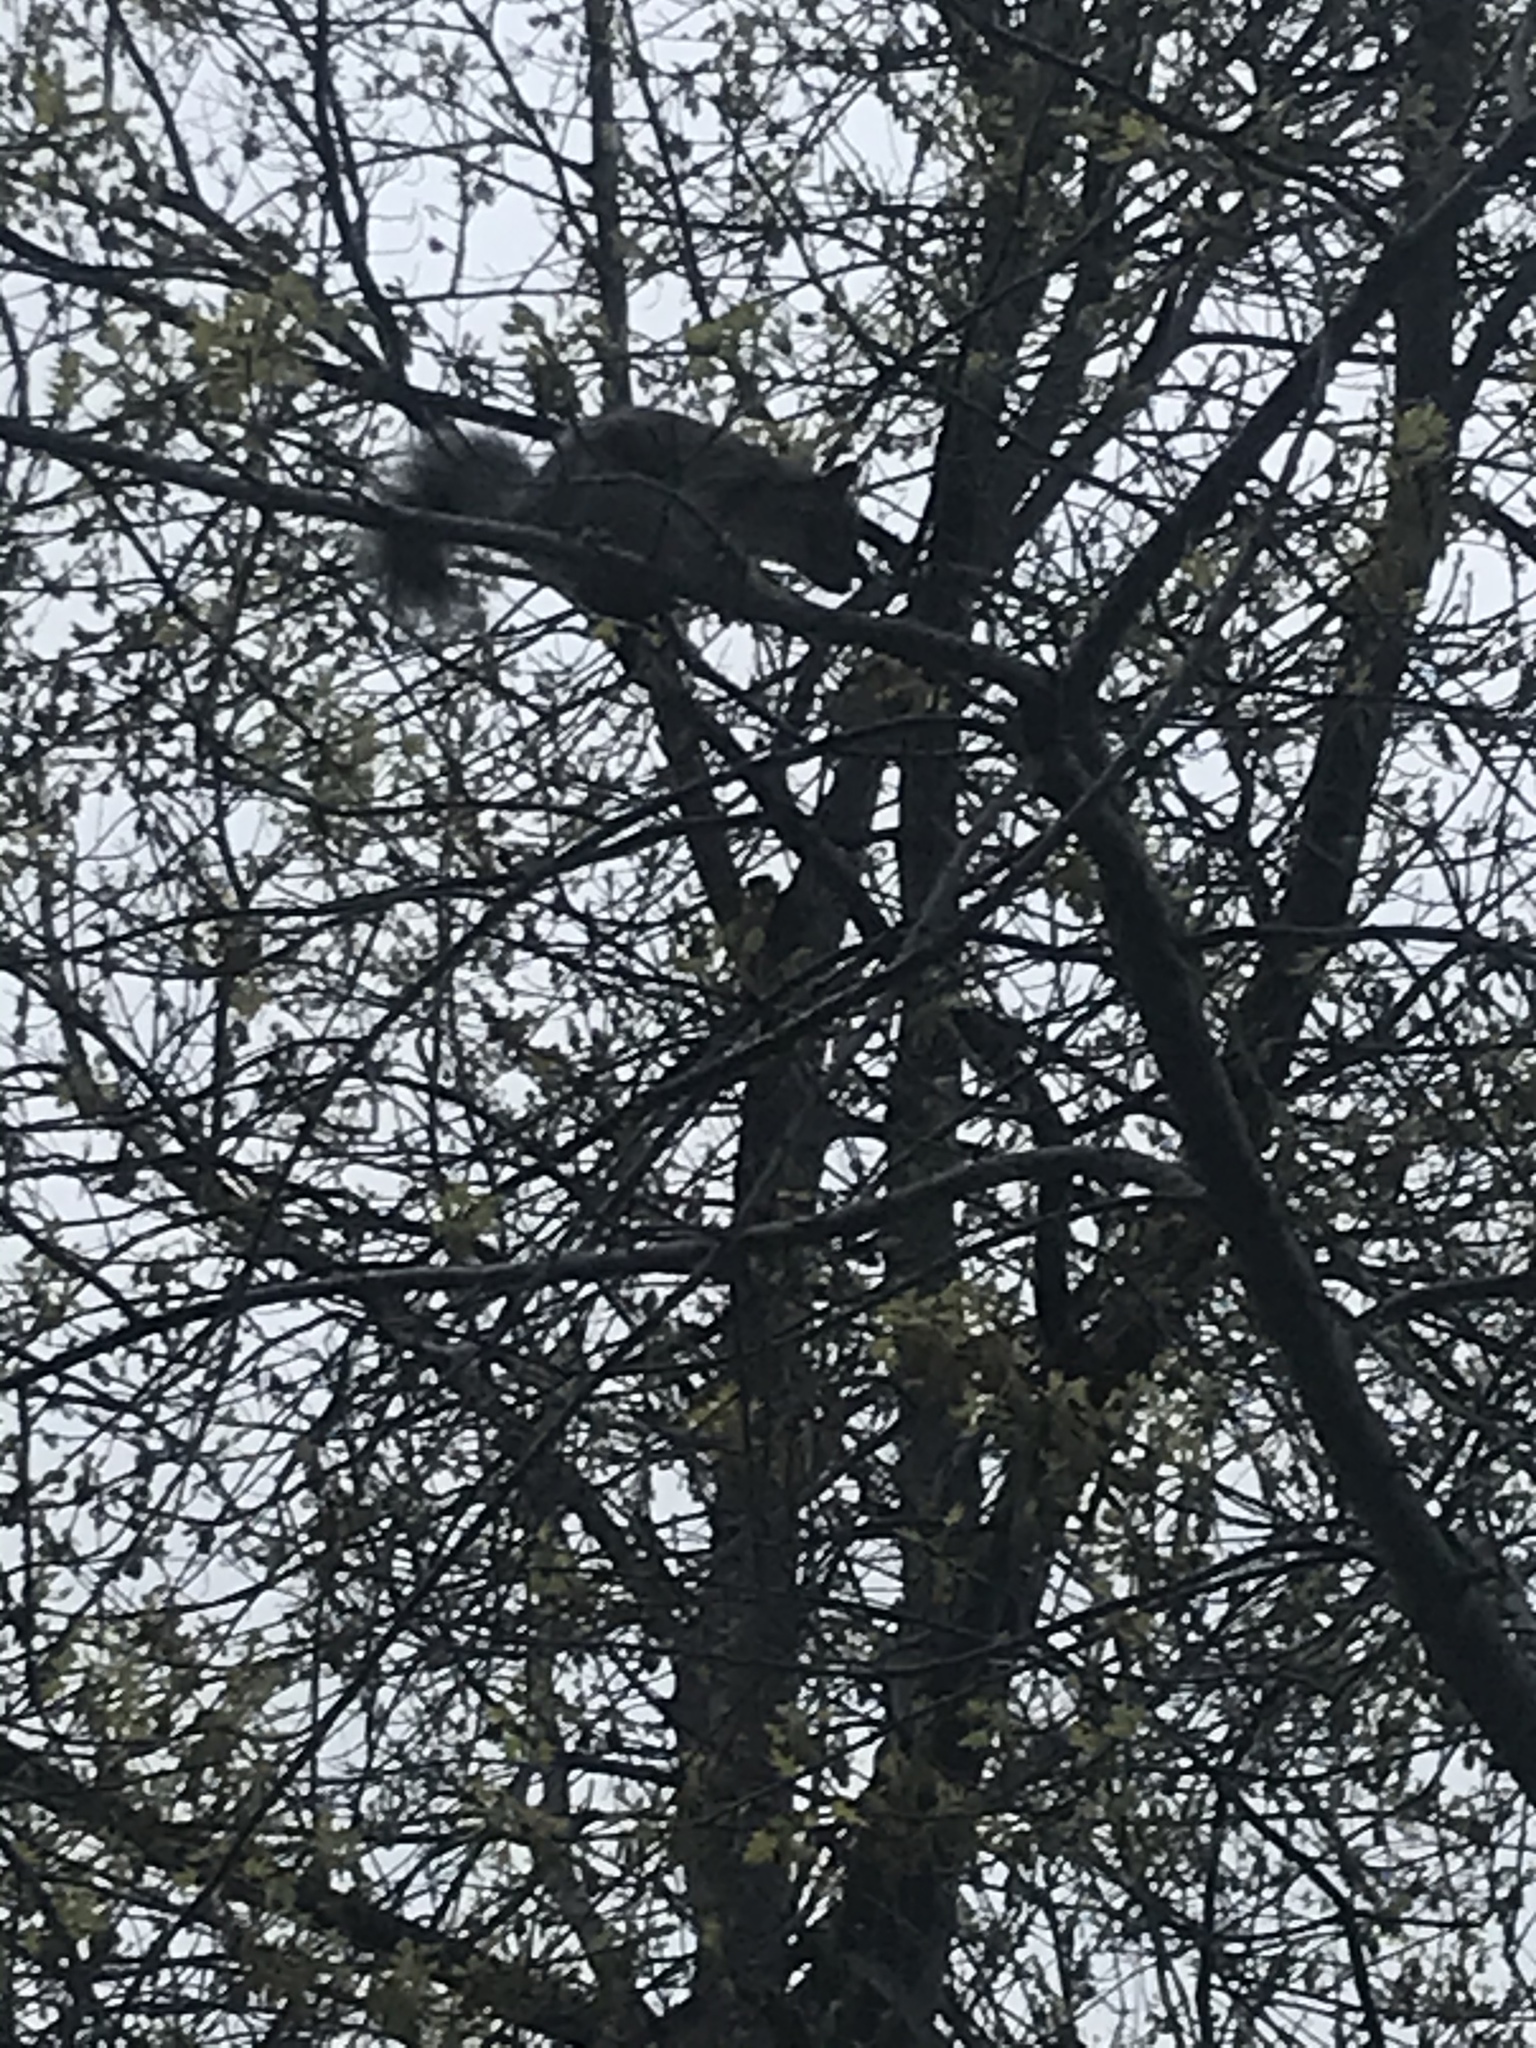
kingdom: Animalia
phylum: Chordata
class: Mammalia
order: Rodentia
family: Sciuridae
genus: Sciurus
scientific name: Sciurus carolinensis
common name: Eastern gray squirrel
